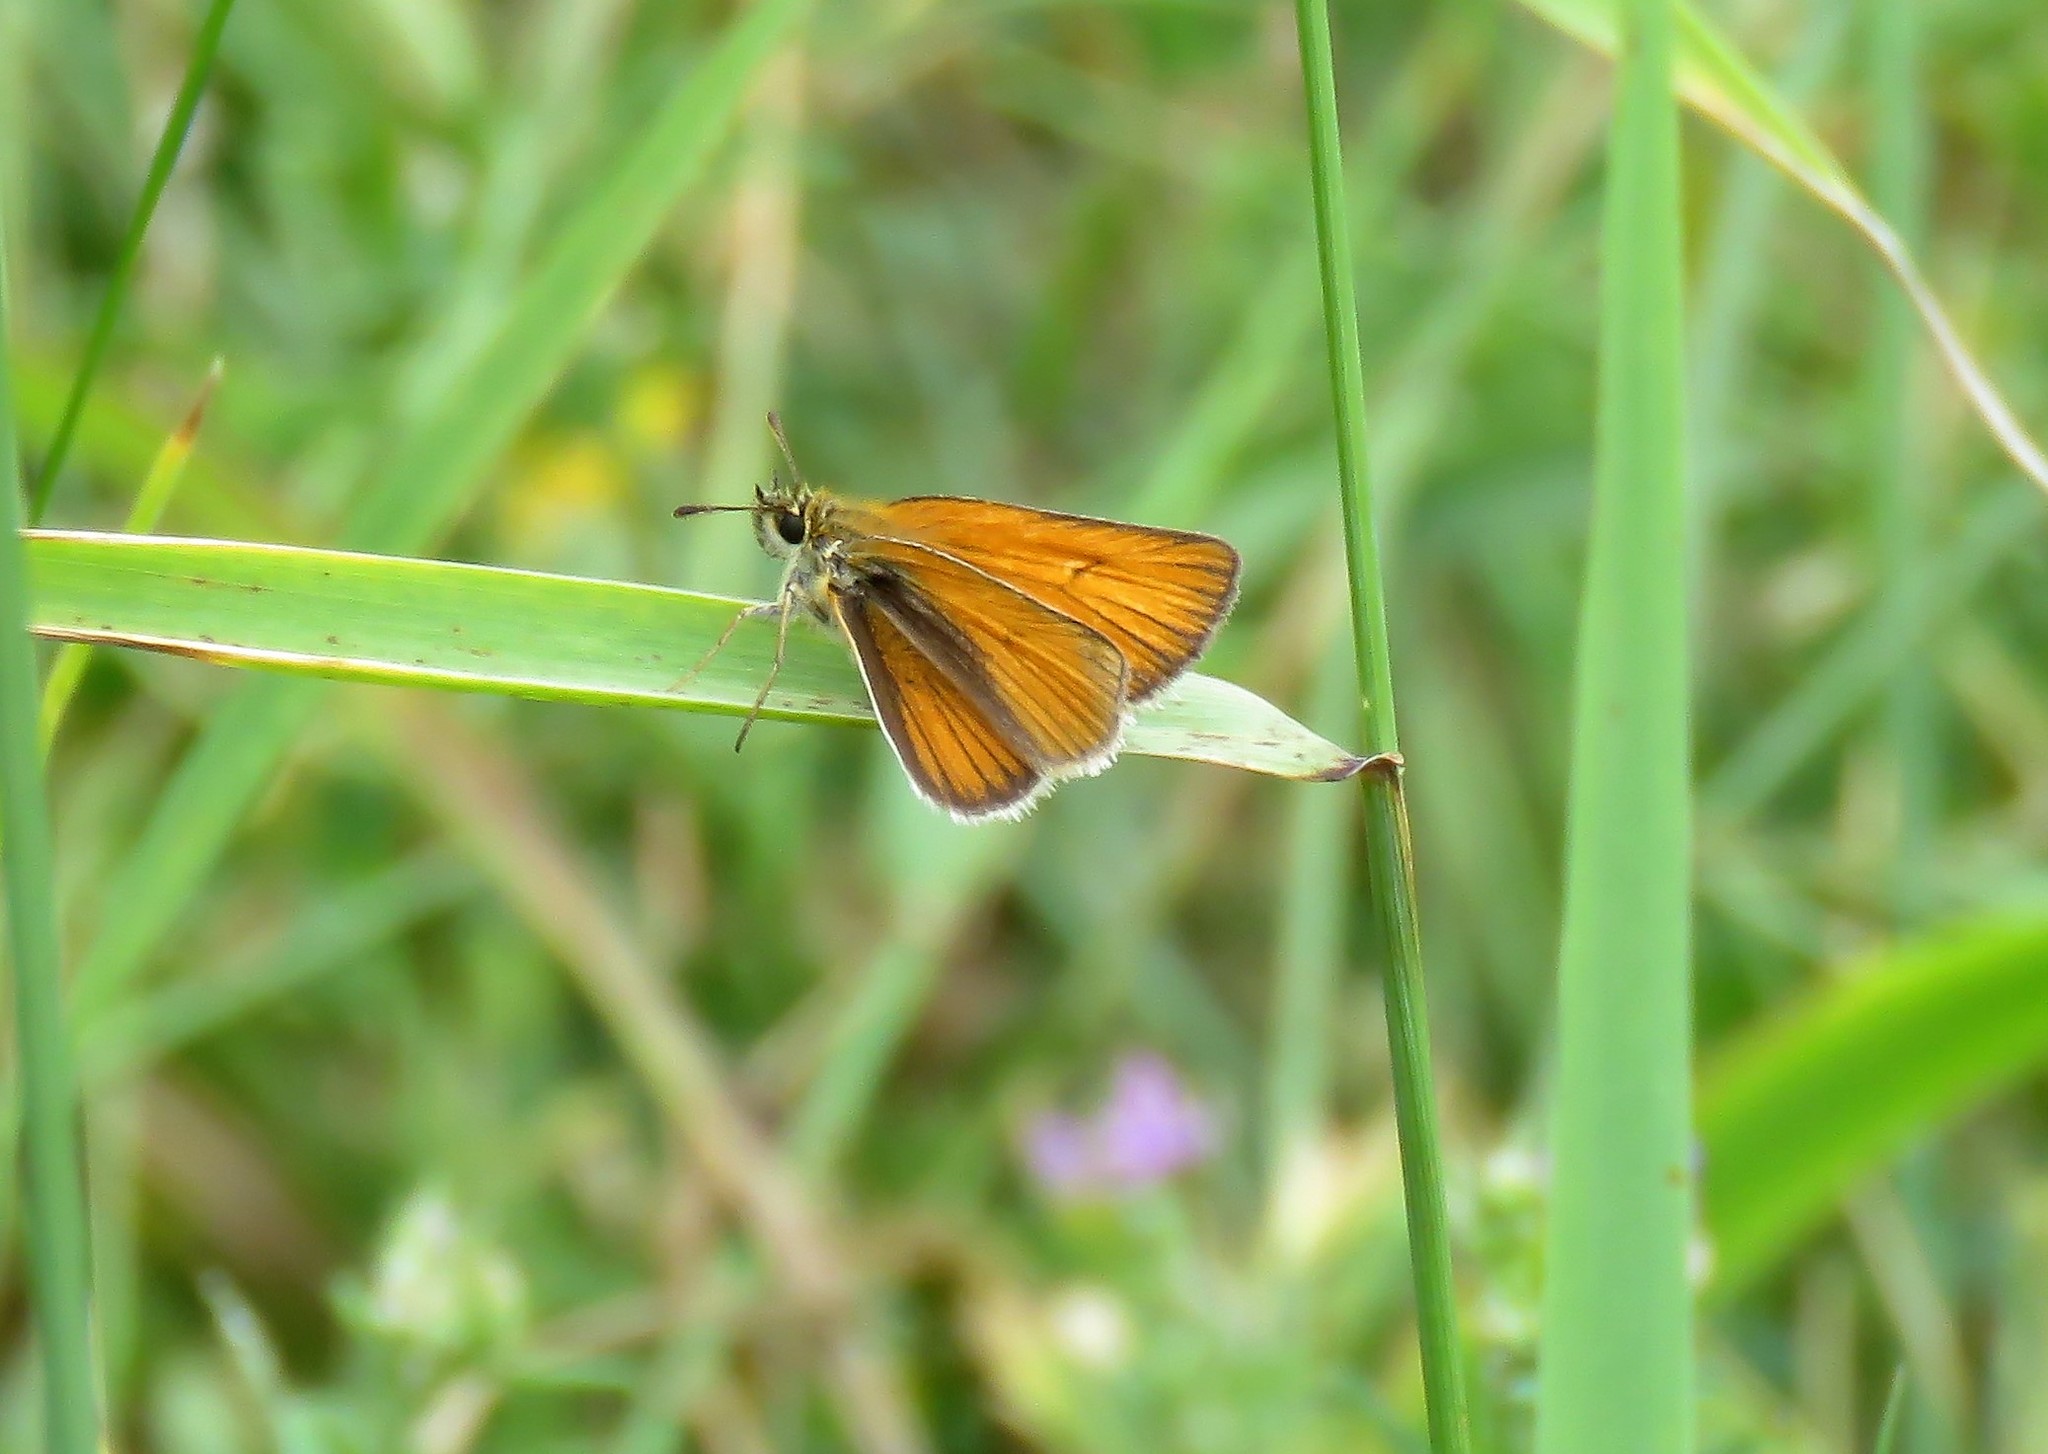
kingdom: Animalia
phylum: Arthropoda
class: Insecta
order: Lepidoptera
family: Hesperiidae
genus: Thymelicus
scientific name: Thymelicus lineola
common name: Essex skipper
